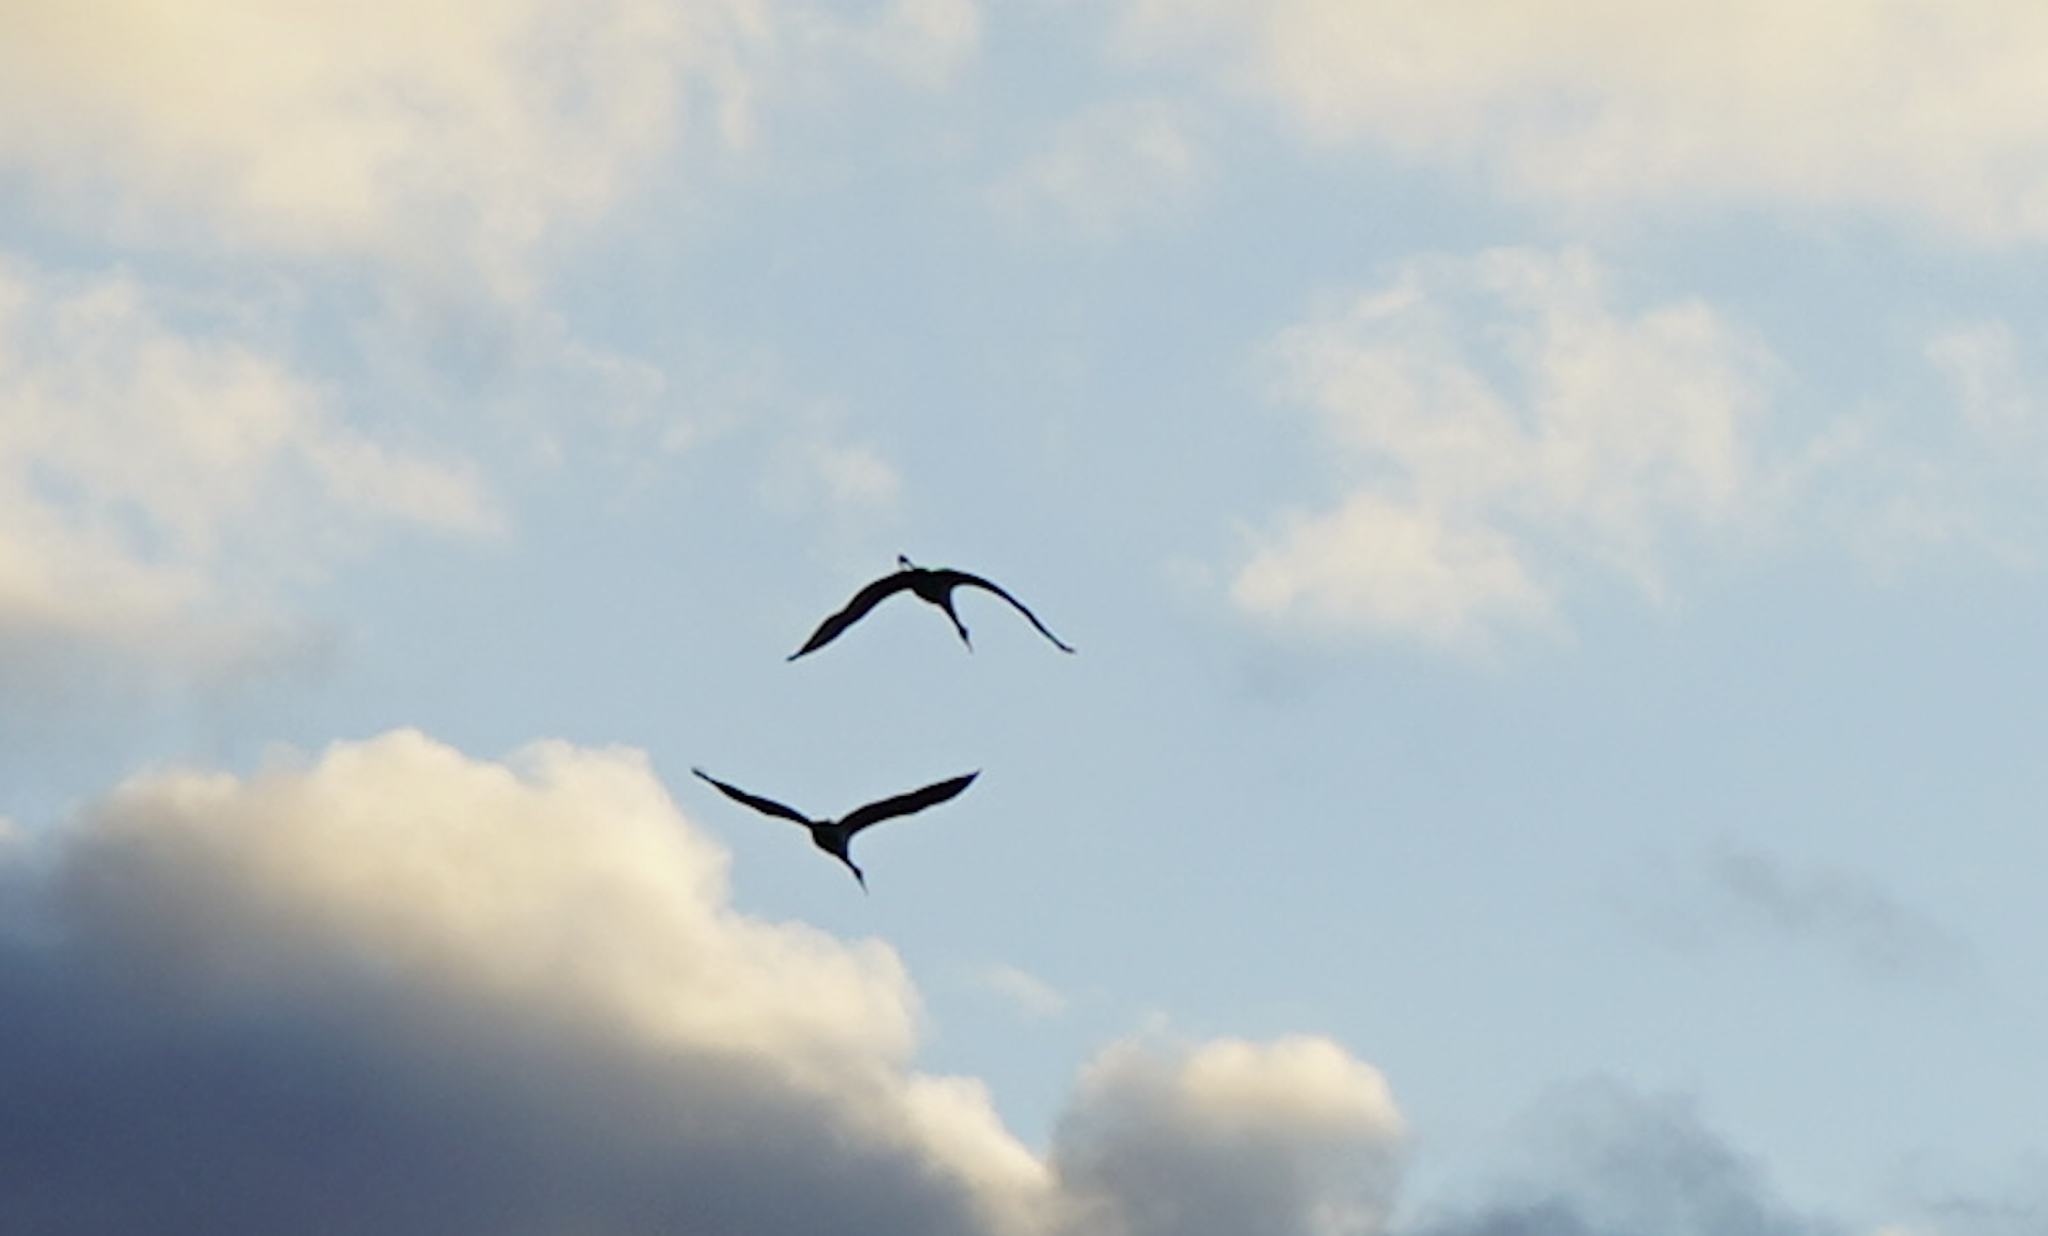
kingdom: Animalia
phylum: Chordata
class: Aves
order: Gruiformes
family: Gruidae
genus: Grus
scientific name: Grus canadensis
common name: Sandhill crane
